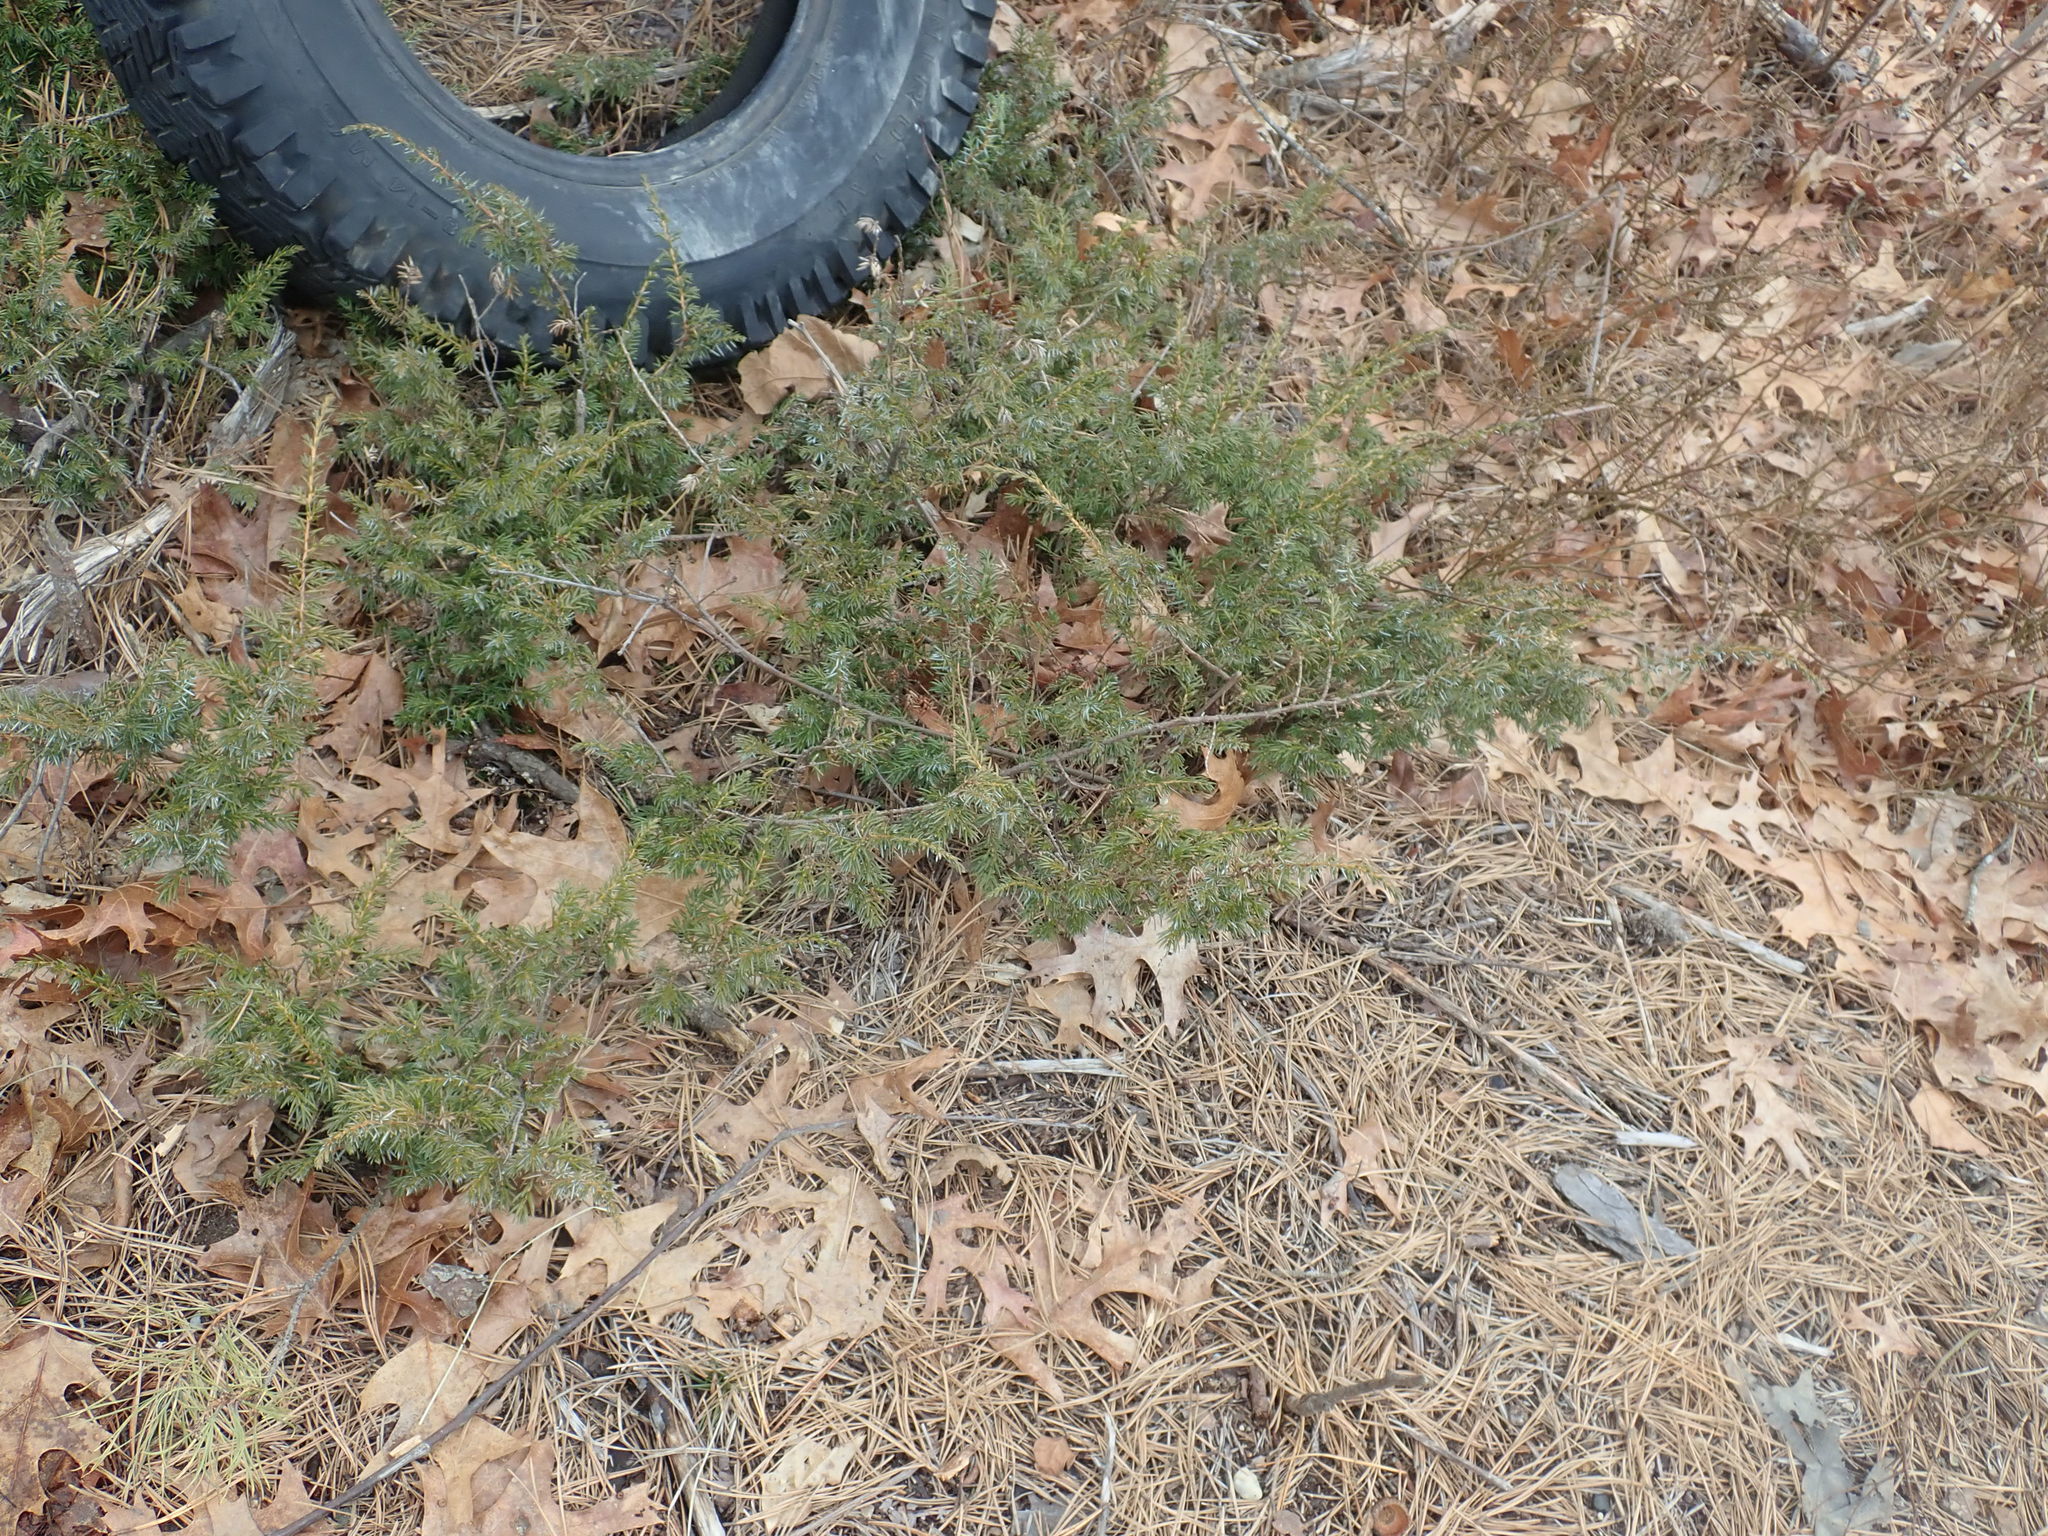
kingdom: Plantae
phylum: Tracheophyta
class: Pinopsida
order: Pinales
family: Cupressaceae
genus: Juniperus
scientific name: Juniperus communis
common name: Common juniper
